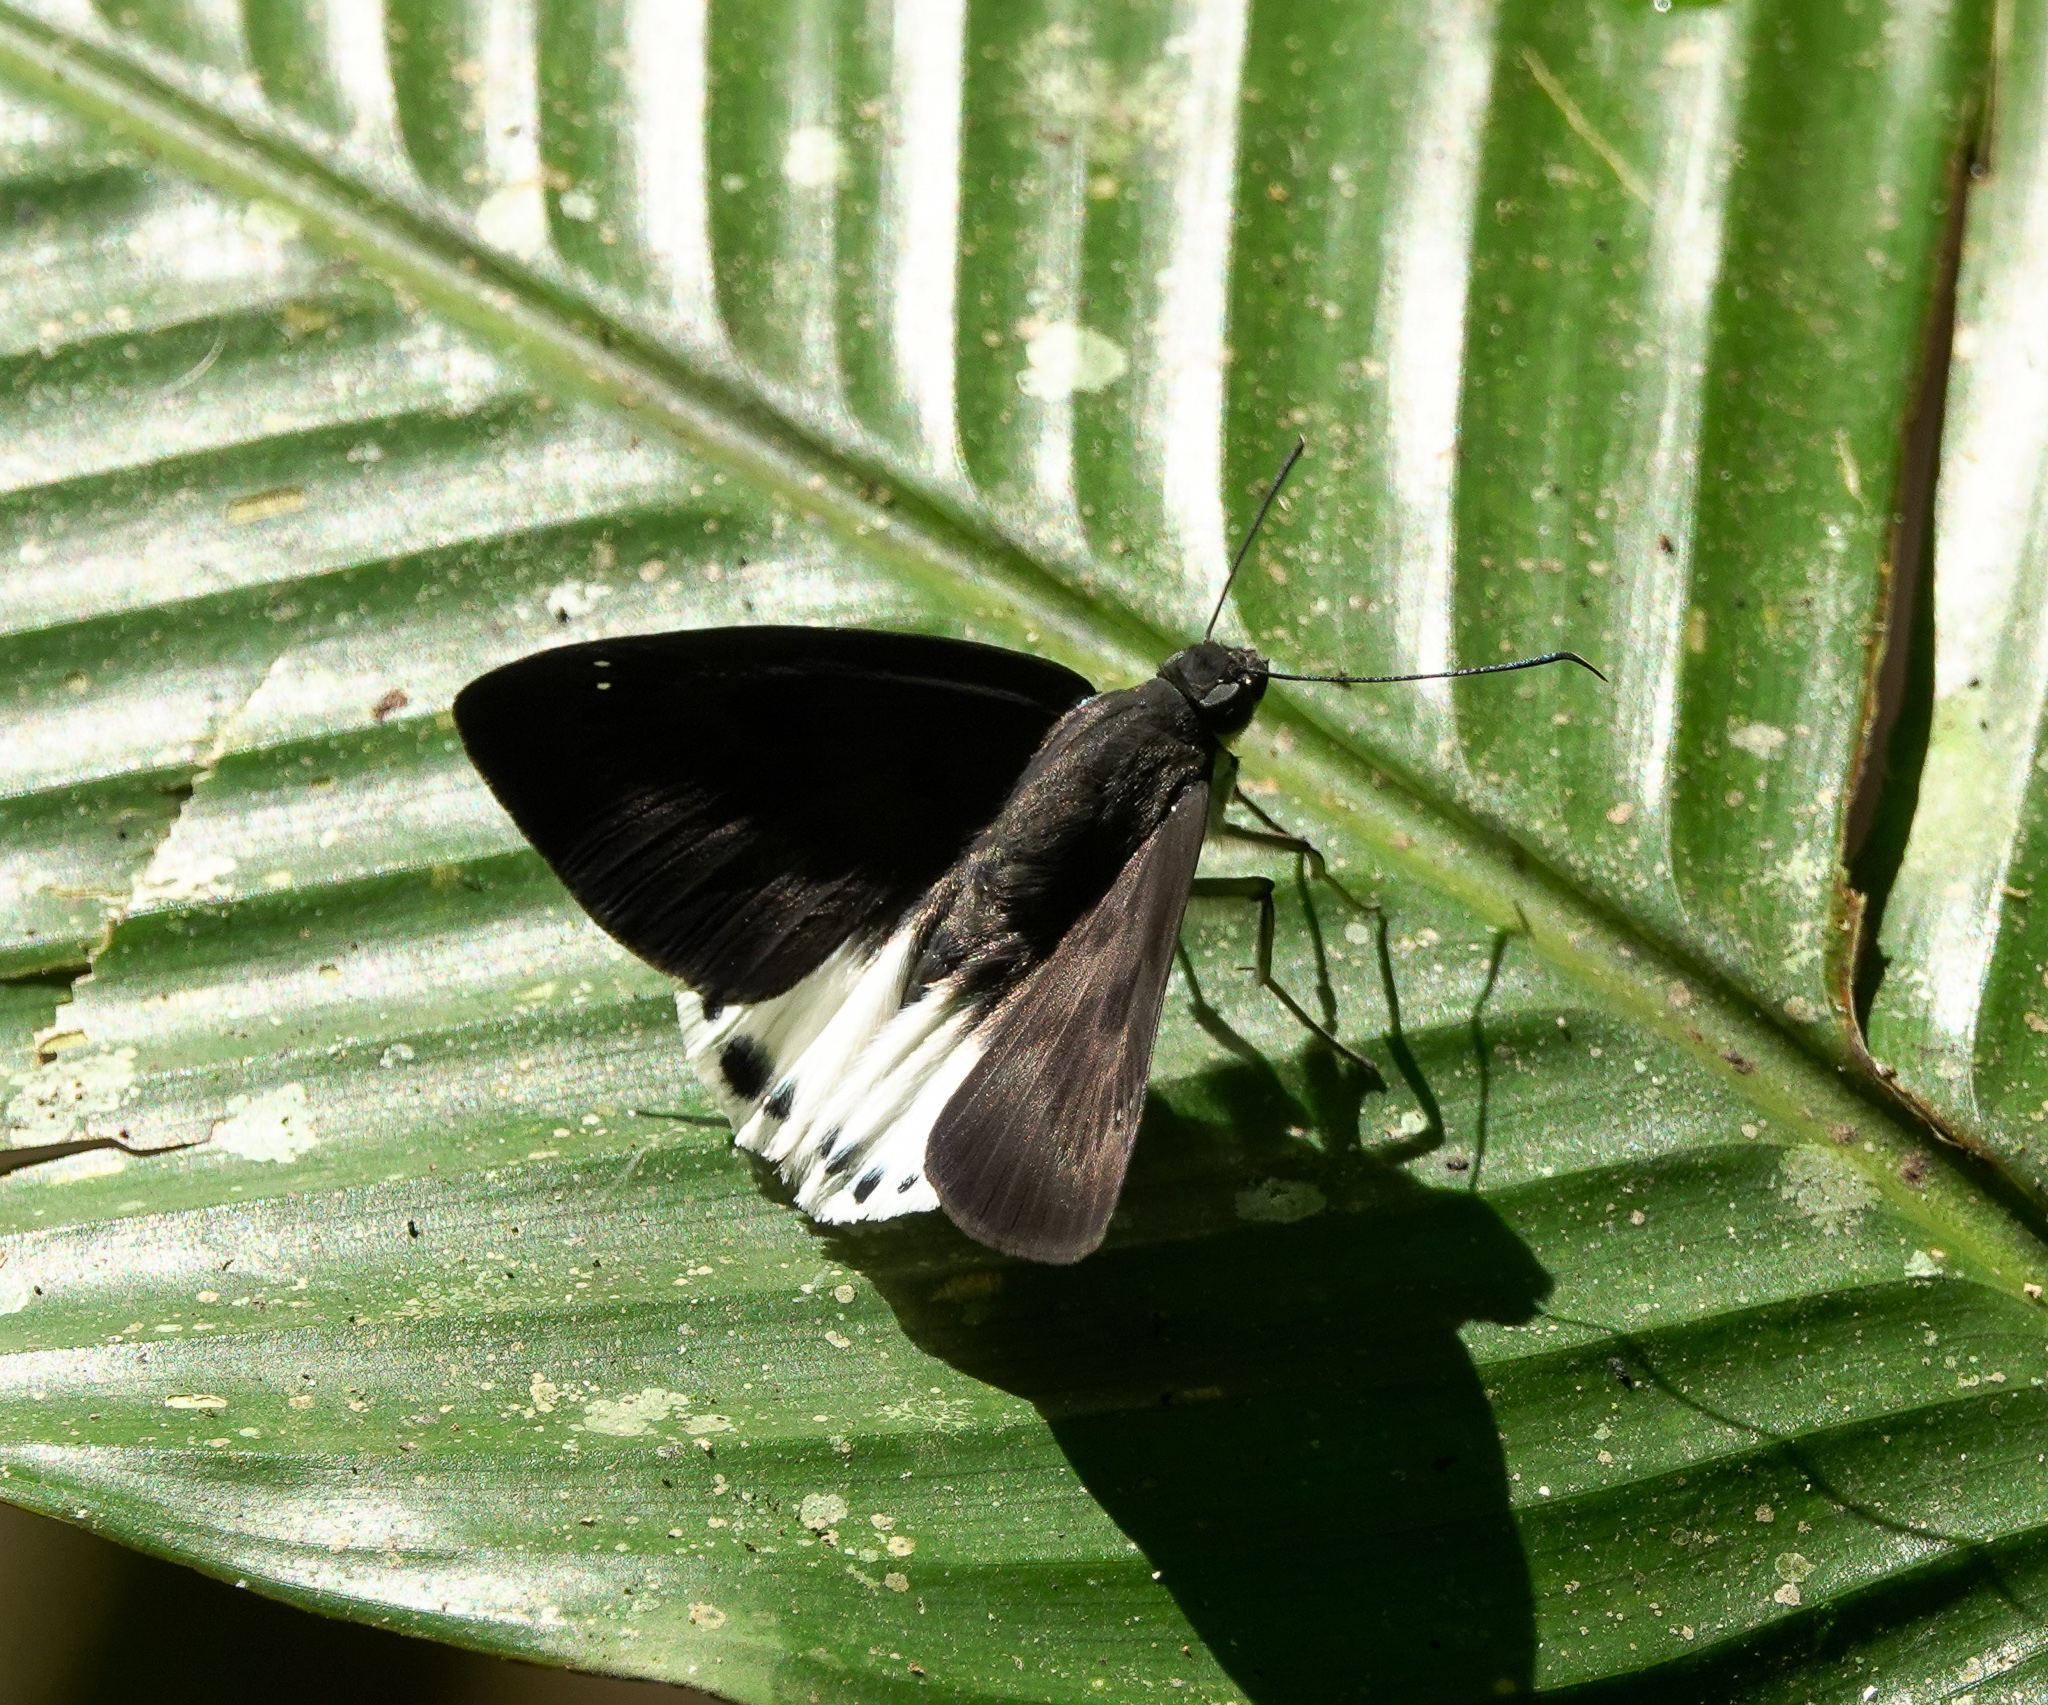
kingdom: Animalia
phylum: Arthropoda
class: Insecta
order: Lepidoptera
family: Hesperiidae
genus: Tagiades
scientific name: Tagiades litigiosa
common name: Water snow flat
